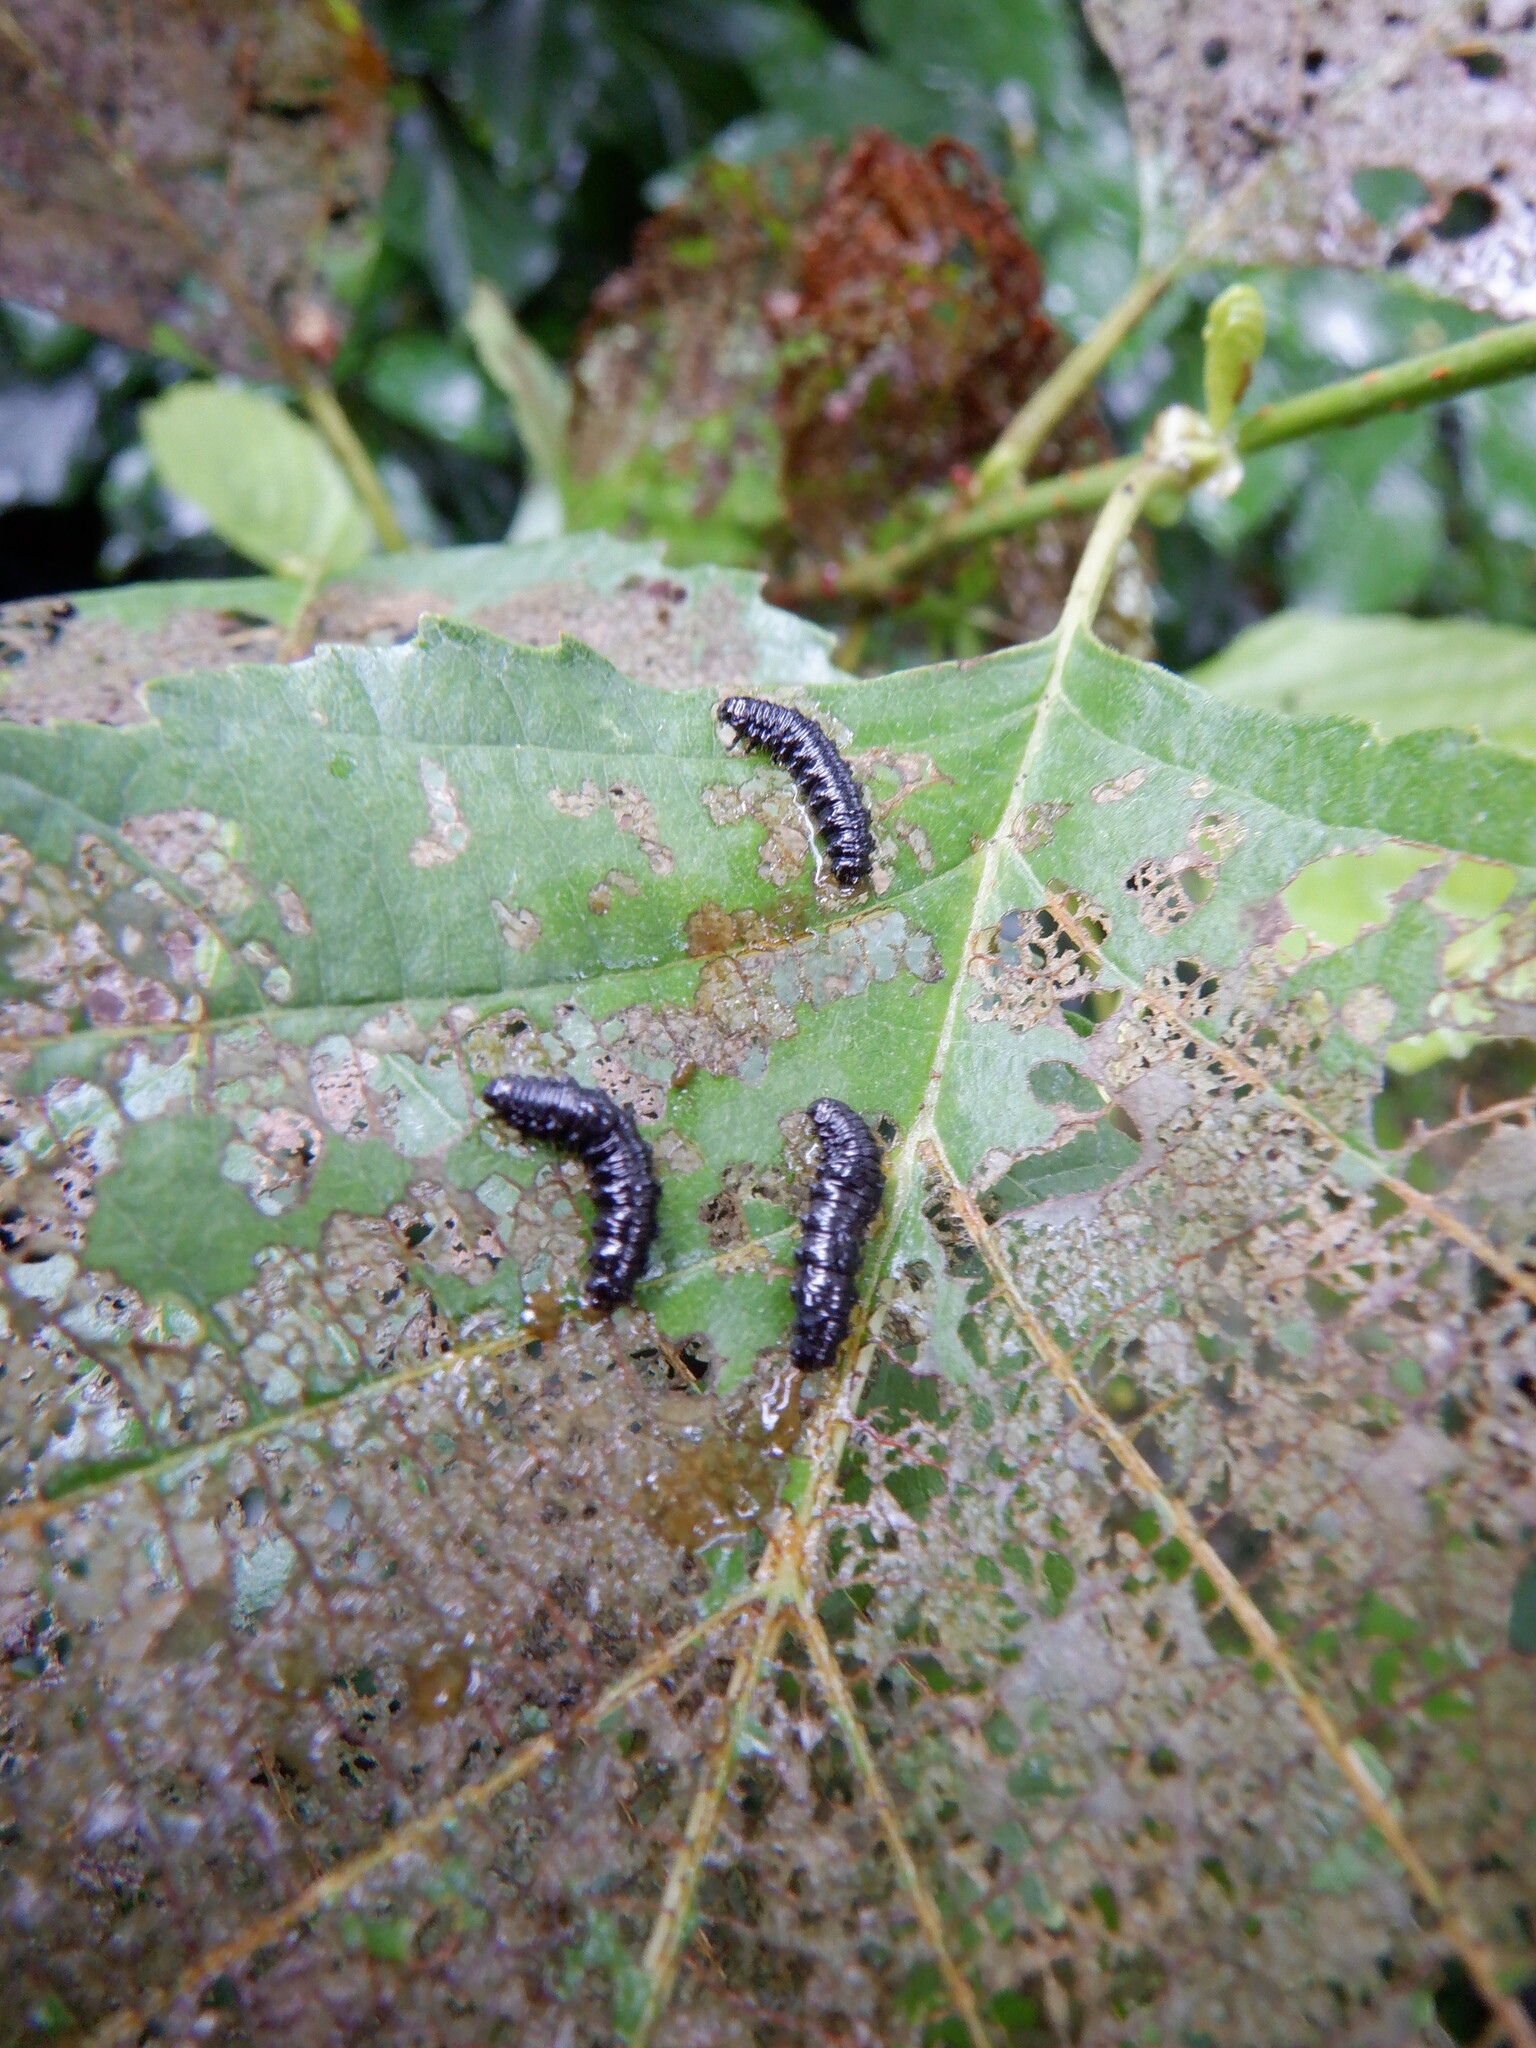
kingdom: Animalia
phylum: Arthropoda
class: Insecta
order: Coleoptera
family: Chrysomelidae
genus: Agelastica
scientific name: Agelastica alni
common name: Alder leaf beetle
